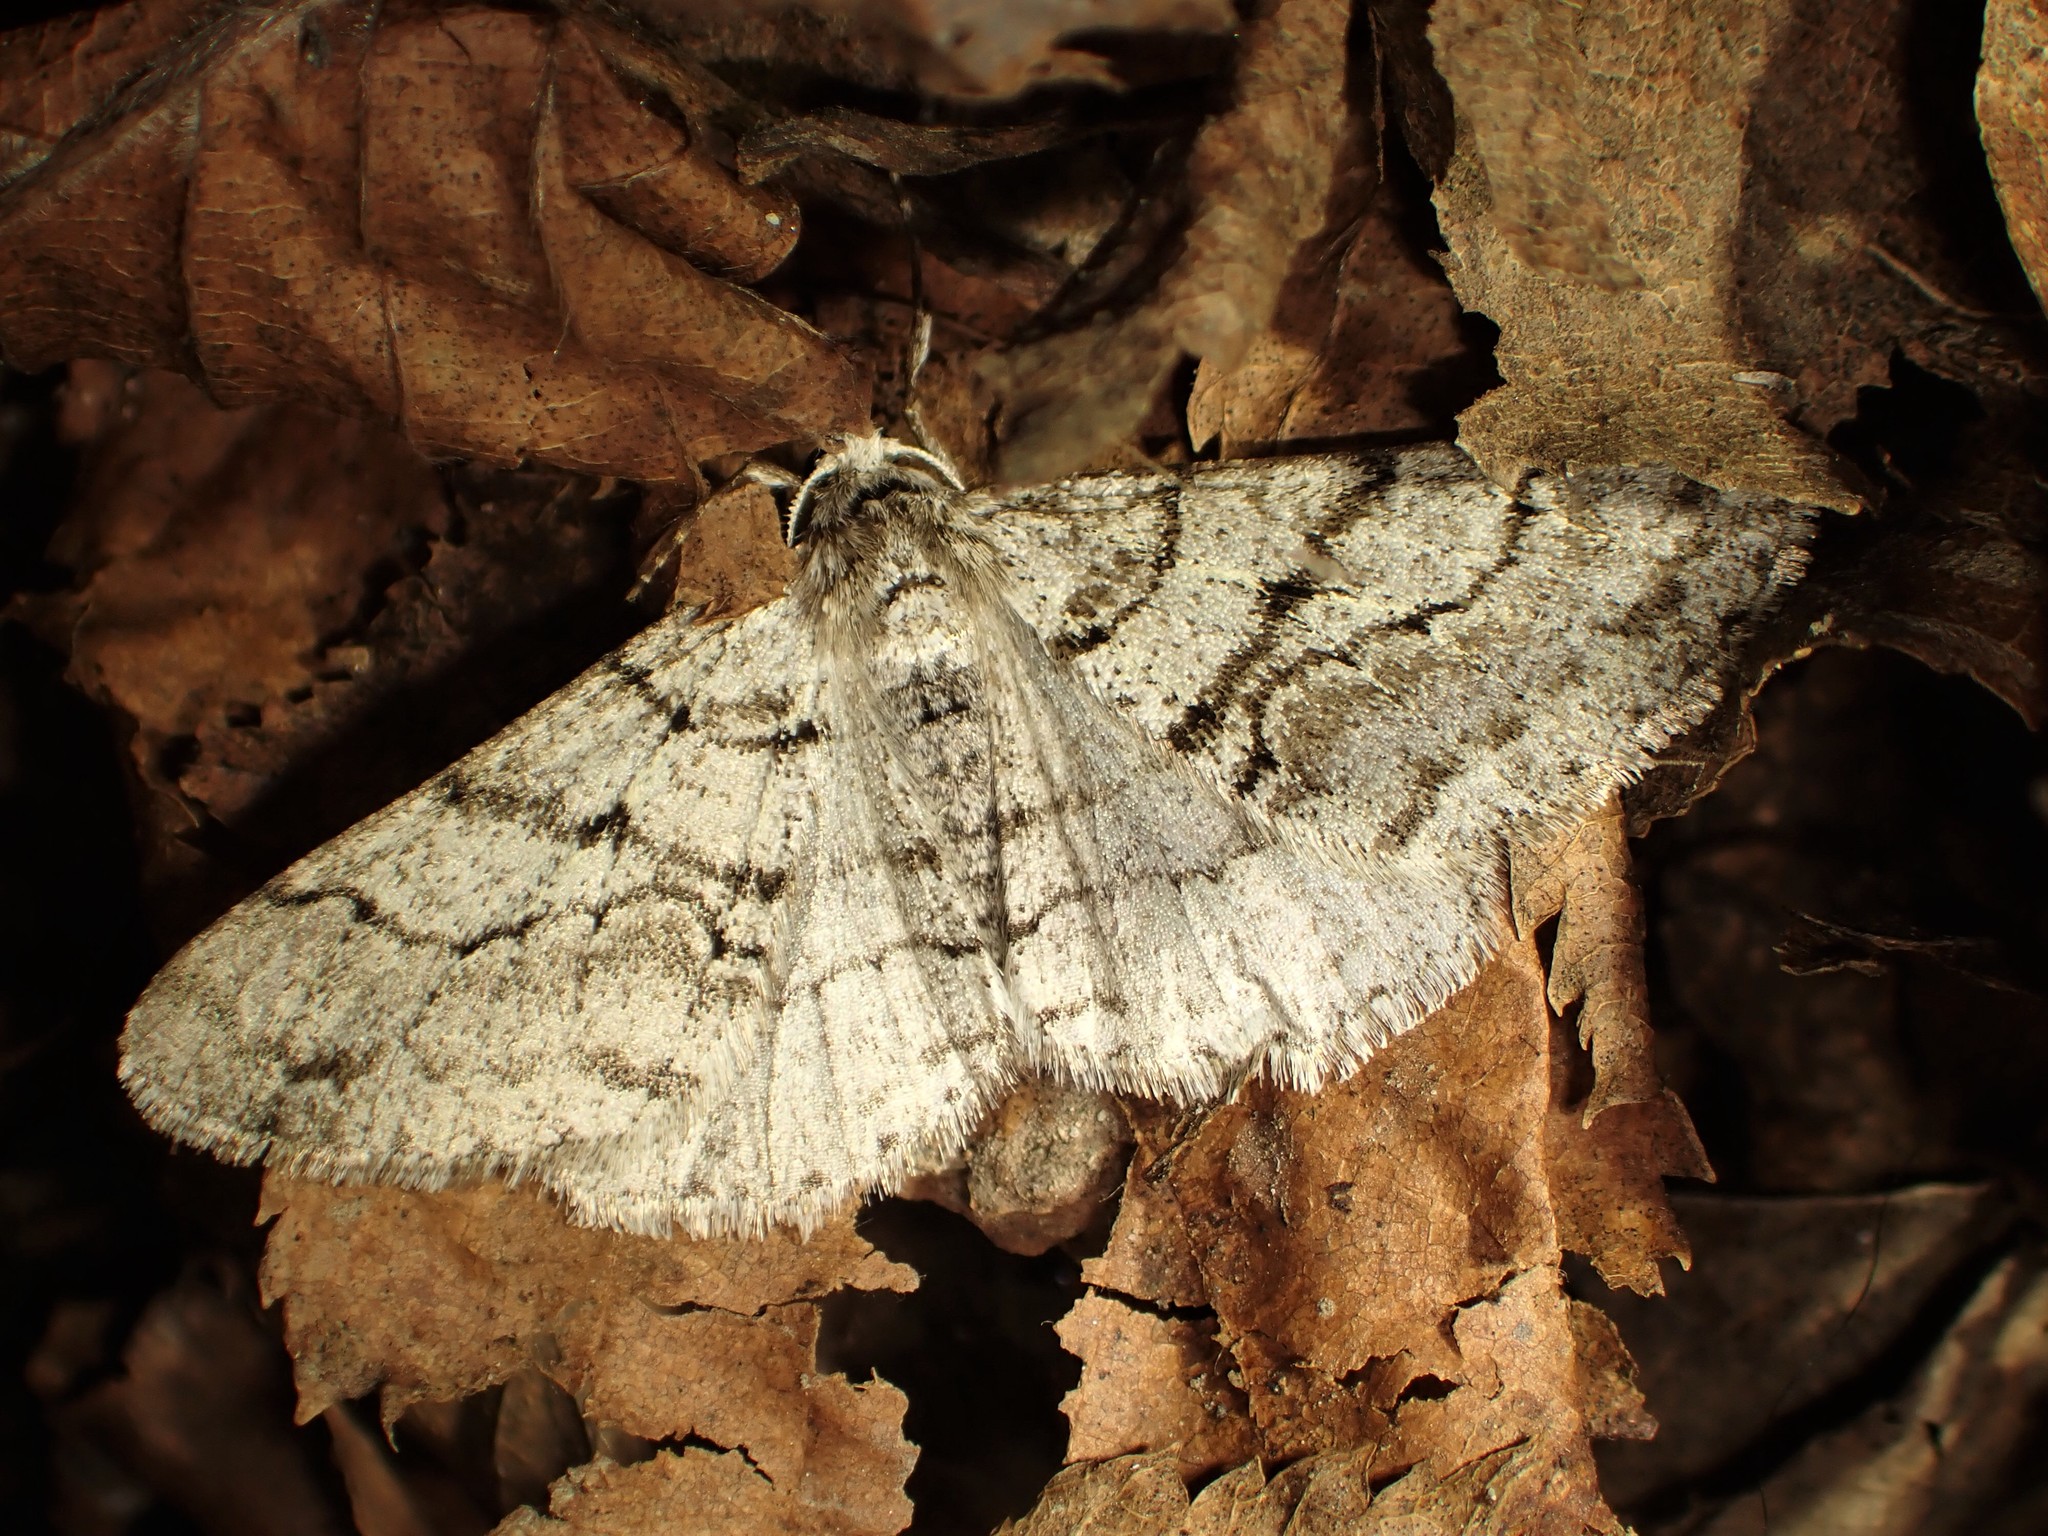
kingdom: Animalia
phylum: Arthropoda
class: Insecta
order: Lepidoptera
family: Geometridae
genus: Phigalia
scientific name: Phigalia titea
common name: Spiny looper
